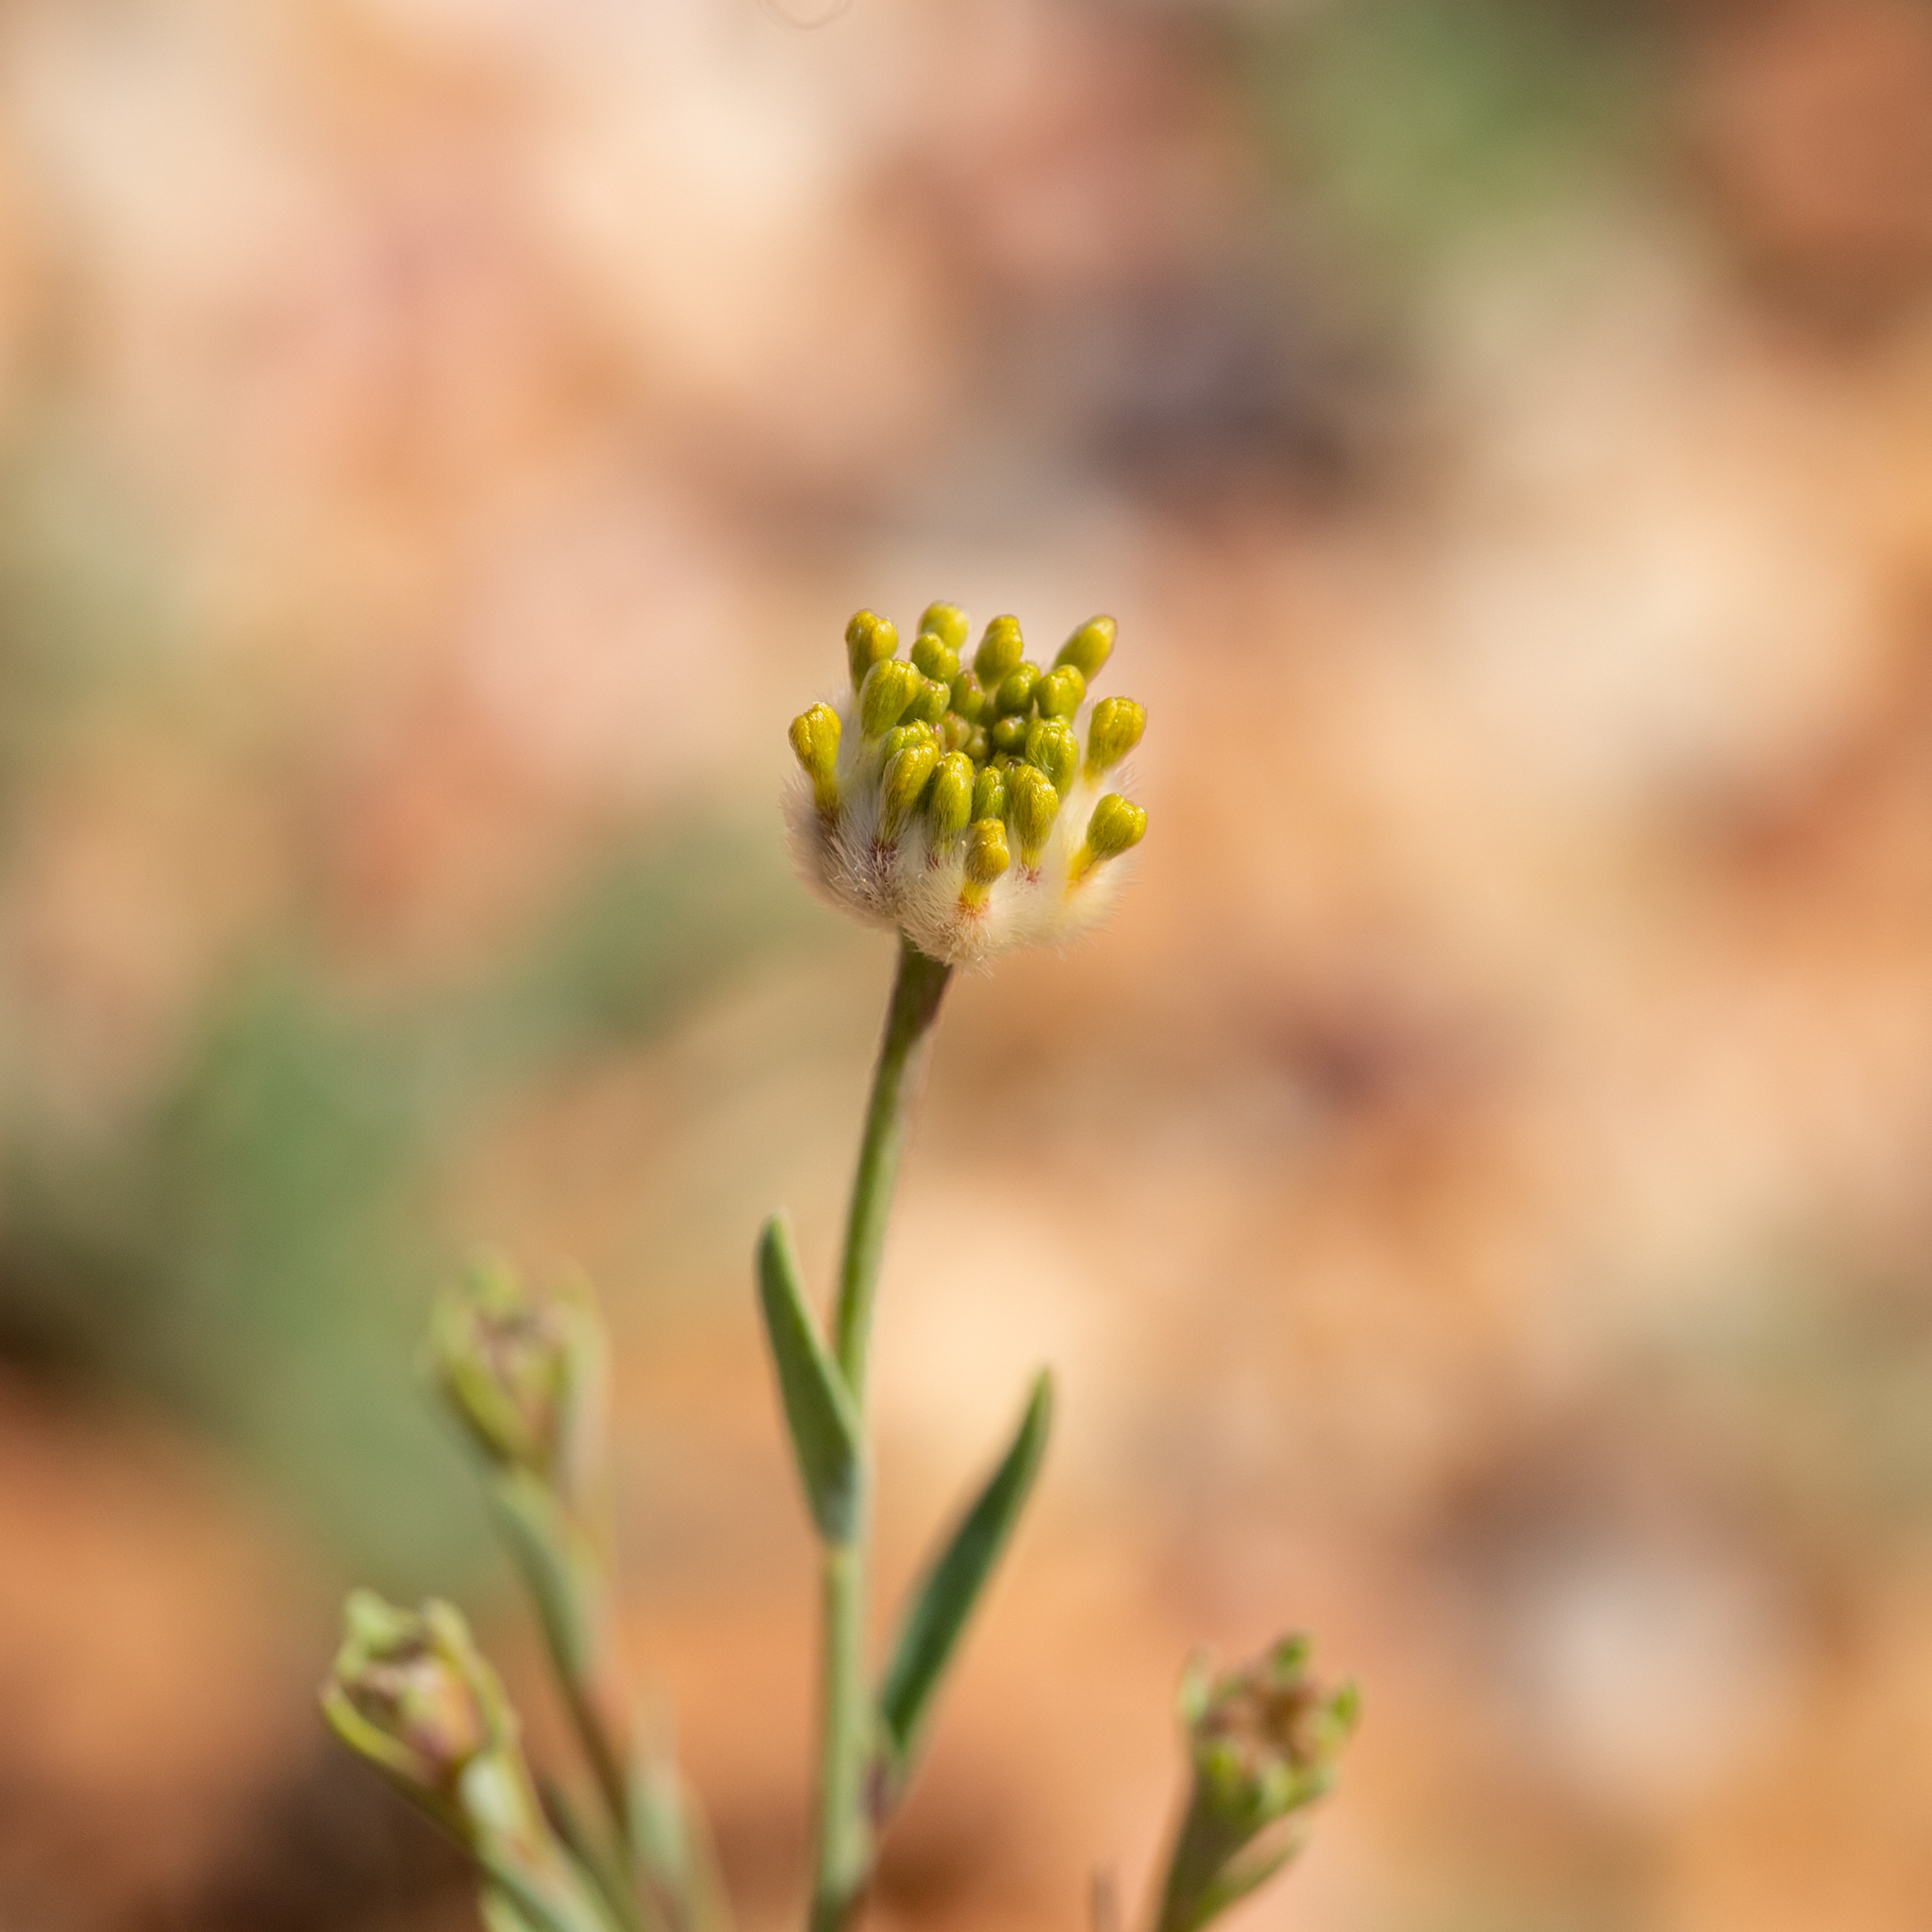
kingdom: Plantae
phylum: Tracheophyta
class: Magnoliopsida
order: Malvales
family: Thymelaeaceae
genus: Pimelea
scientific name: Pimelea simplex
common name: Desert riceflower
